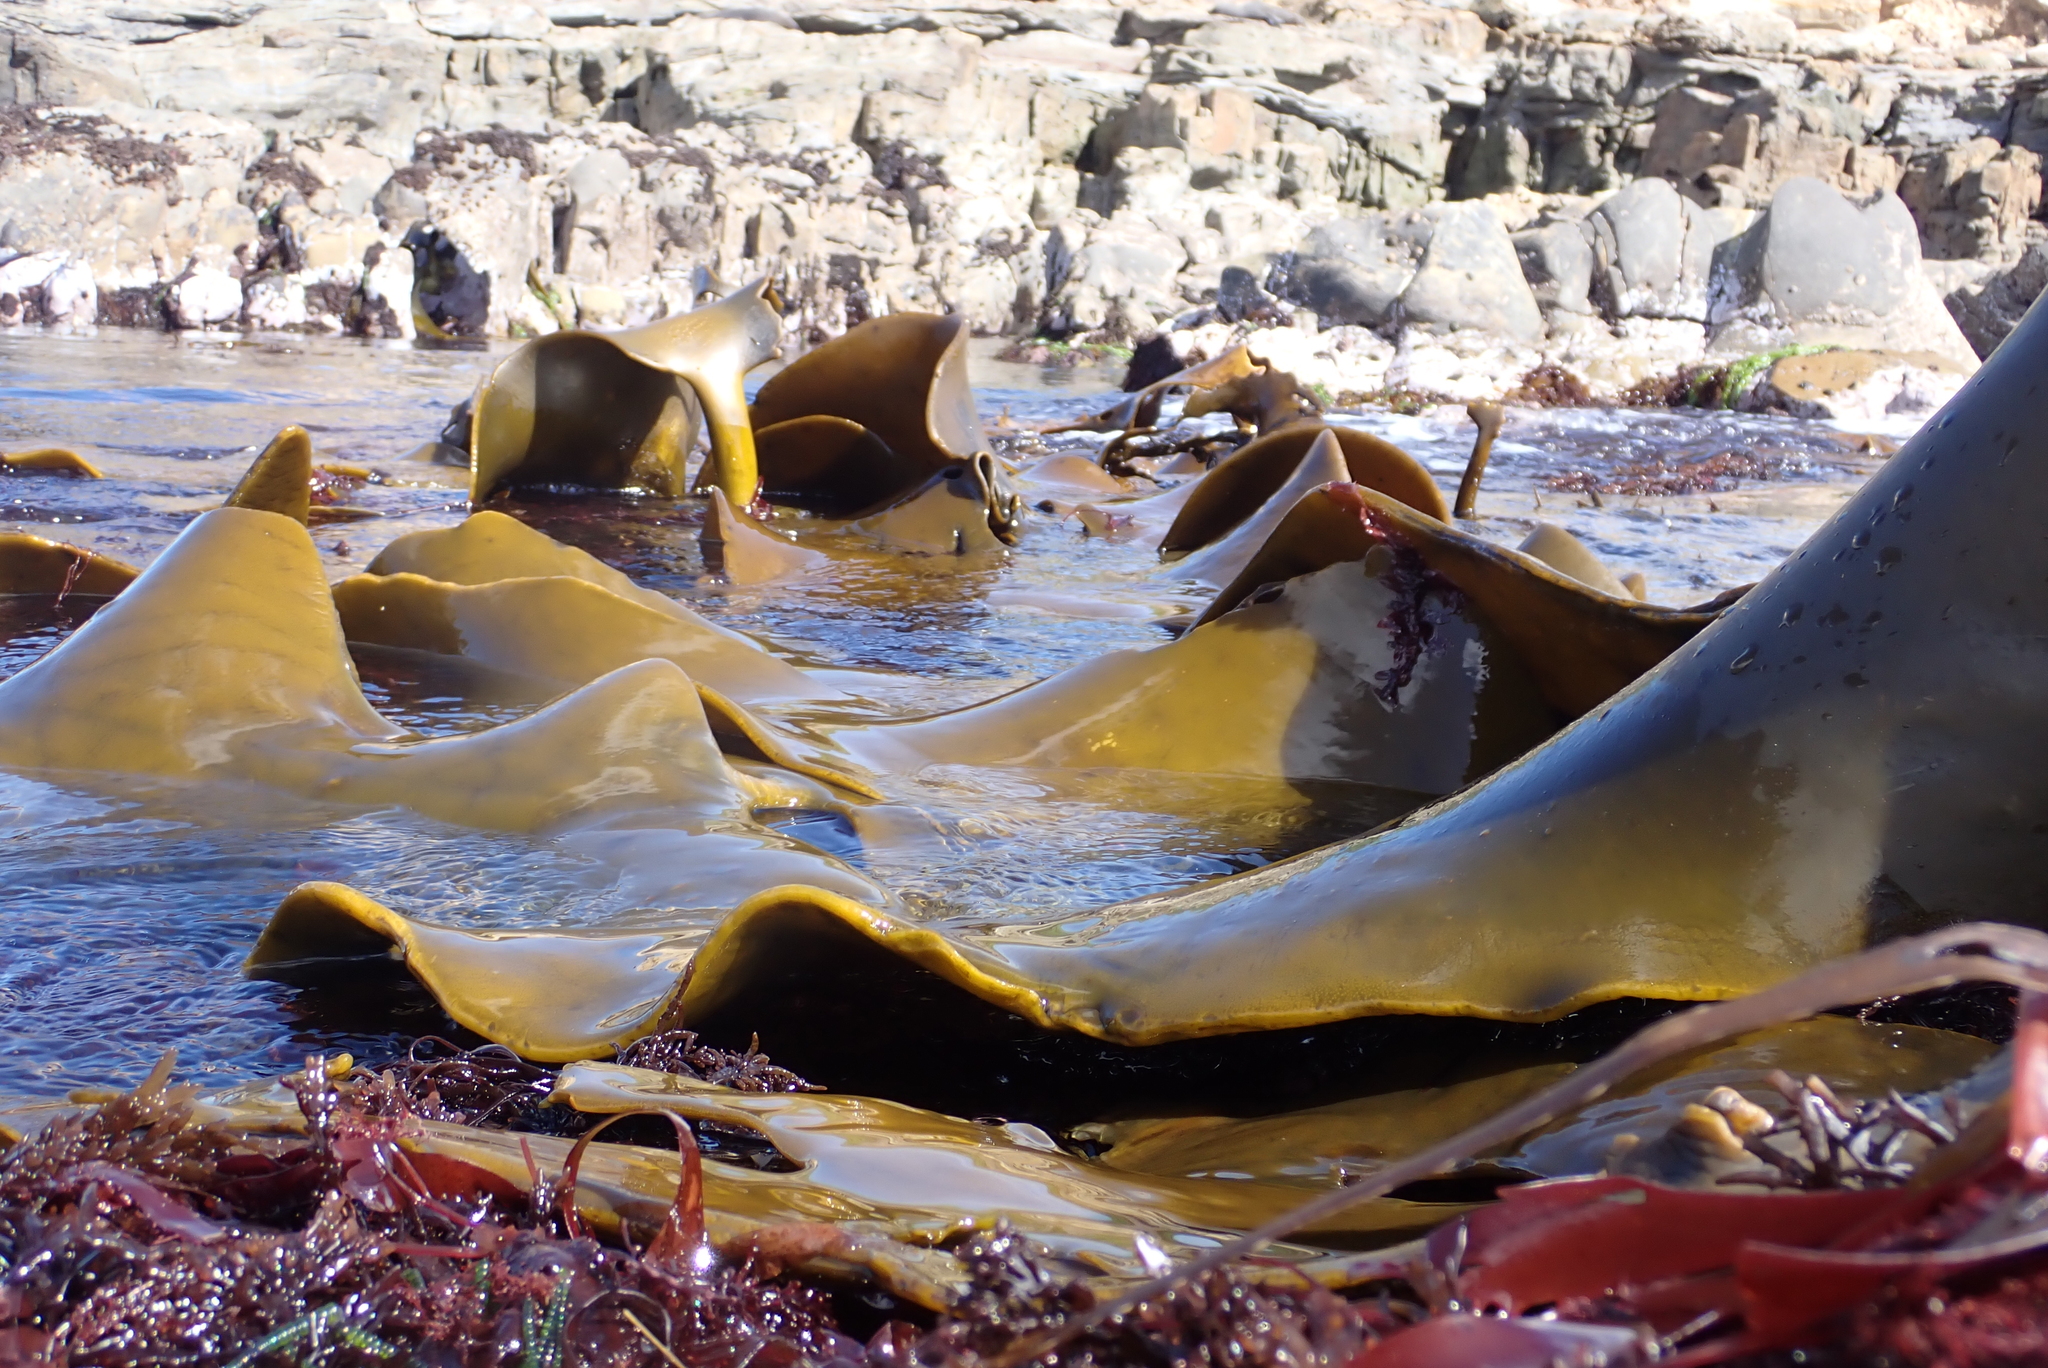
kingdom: Chromista
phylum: Ochrophyta
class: Phaeophyceae
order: Fucales
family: Durvillaeaceae
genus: Durvillaea
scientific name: Durvillaea poha
